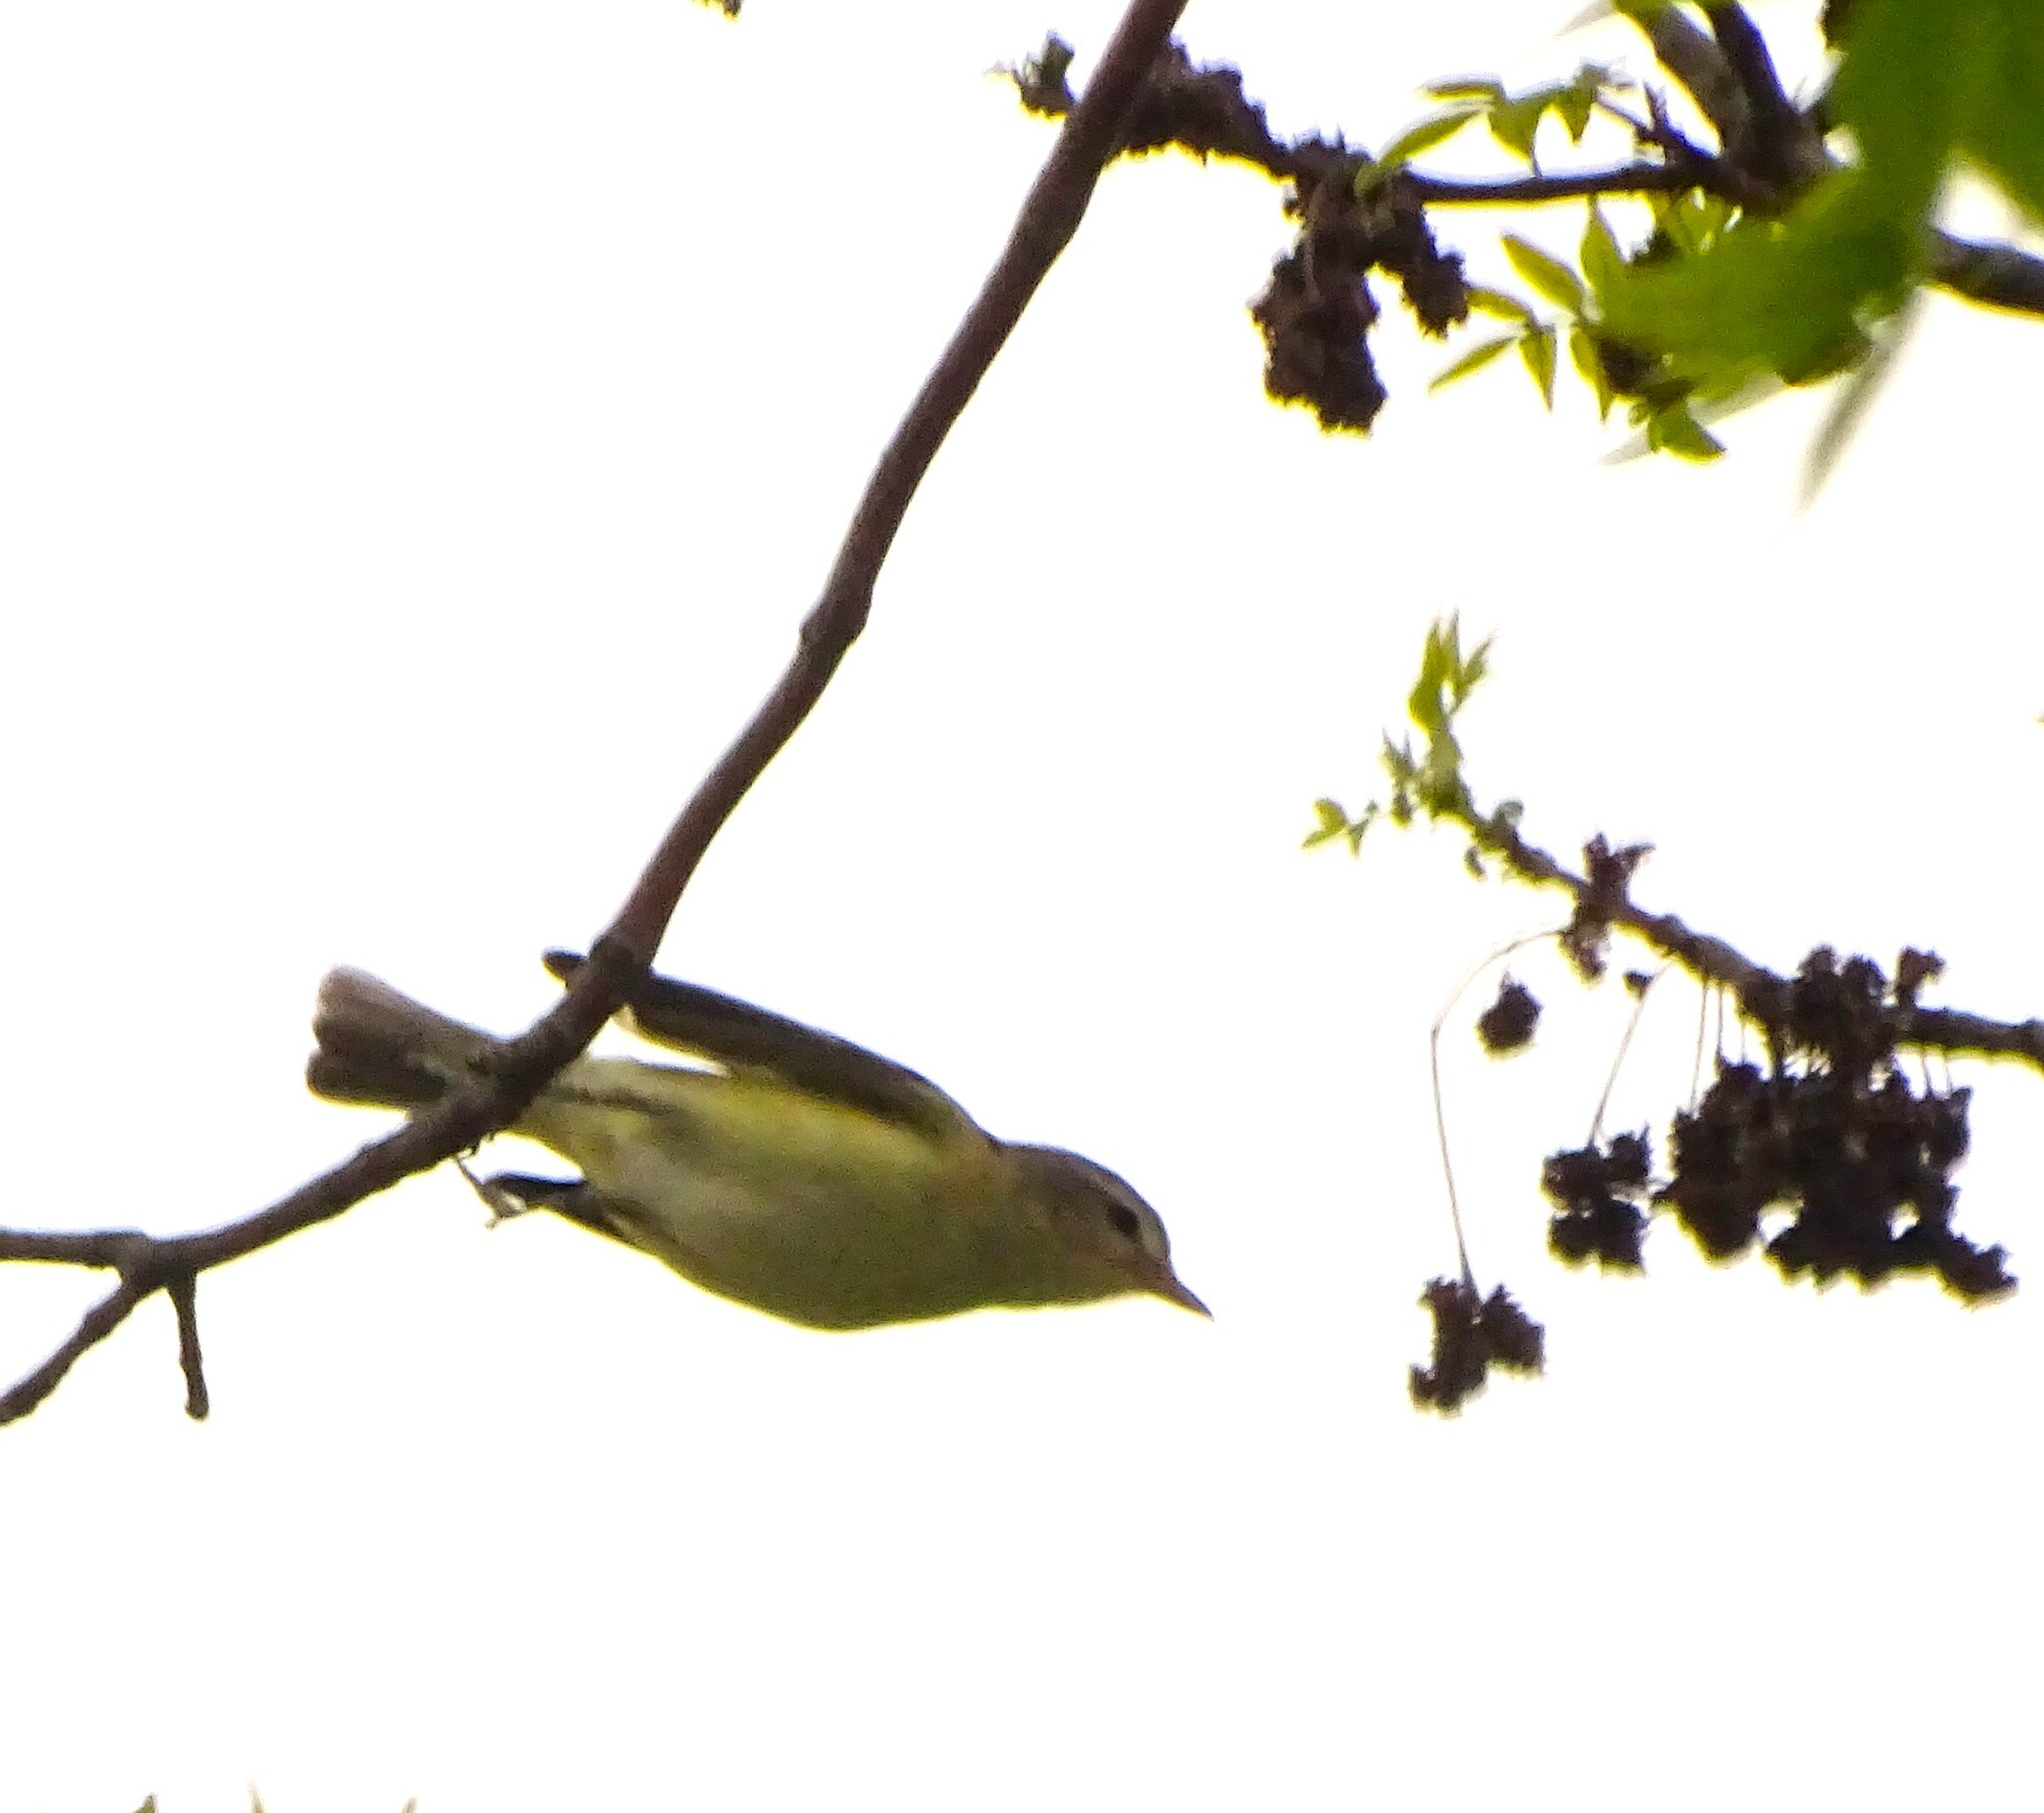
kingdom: Animalia
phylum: Chordata
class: Aves
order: Passeriformes
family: Vireonidae
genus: Vireo
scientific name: Vireo gilvus
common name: Warbling vireo
